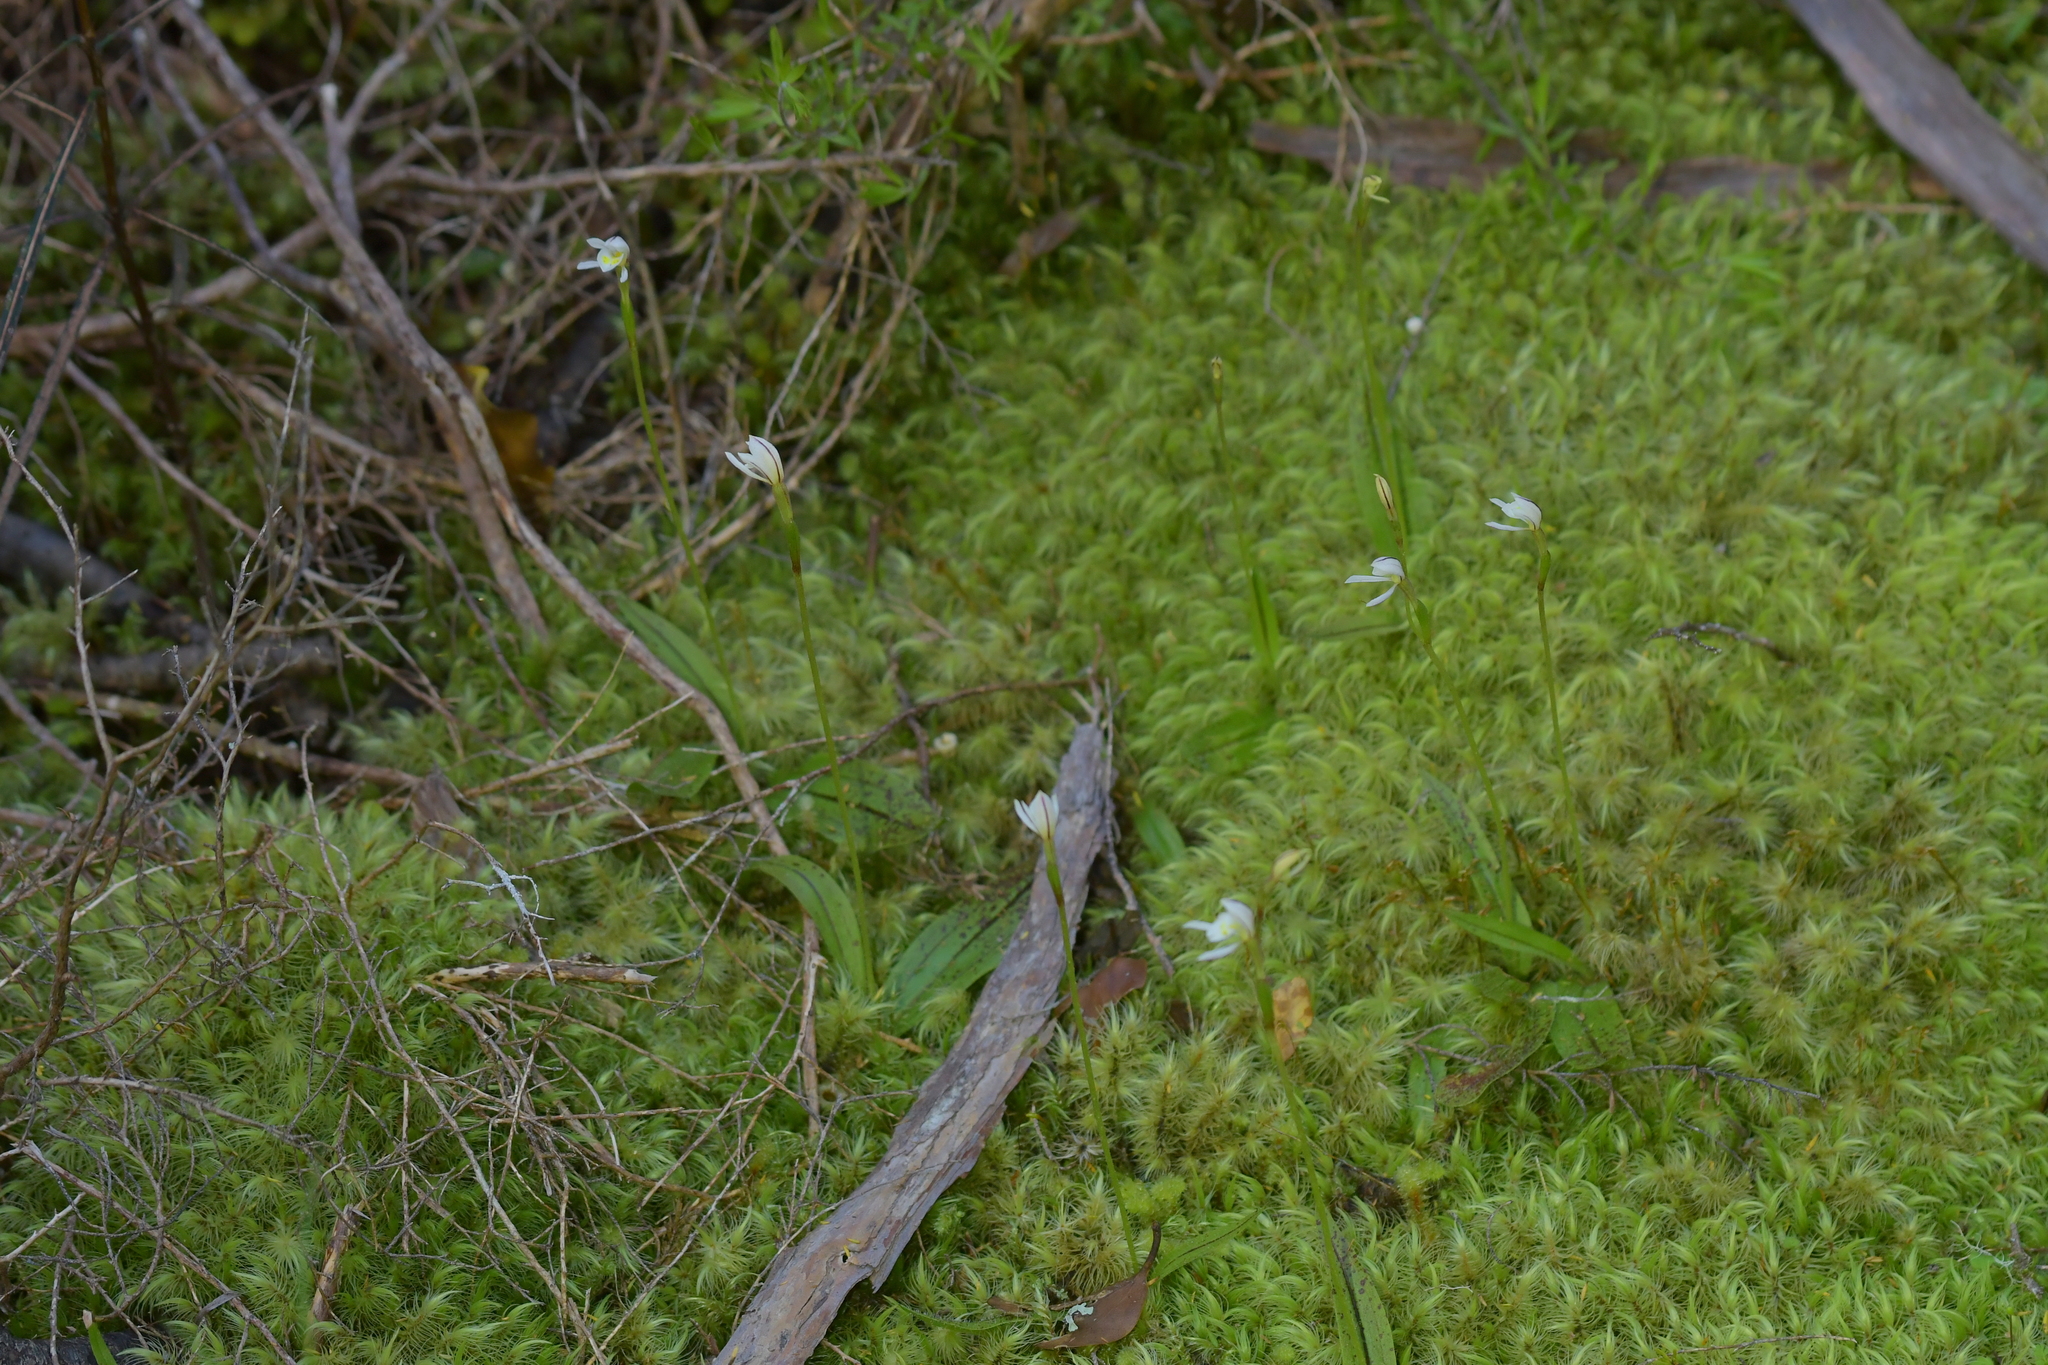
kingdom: Plantae
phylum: Tracheophyta
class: Liliopsida
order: Asparagales
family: Orchidaceae
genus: Aporostylis
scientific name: Aporostylis bifolia
